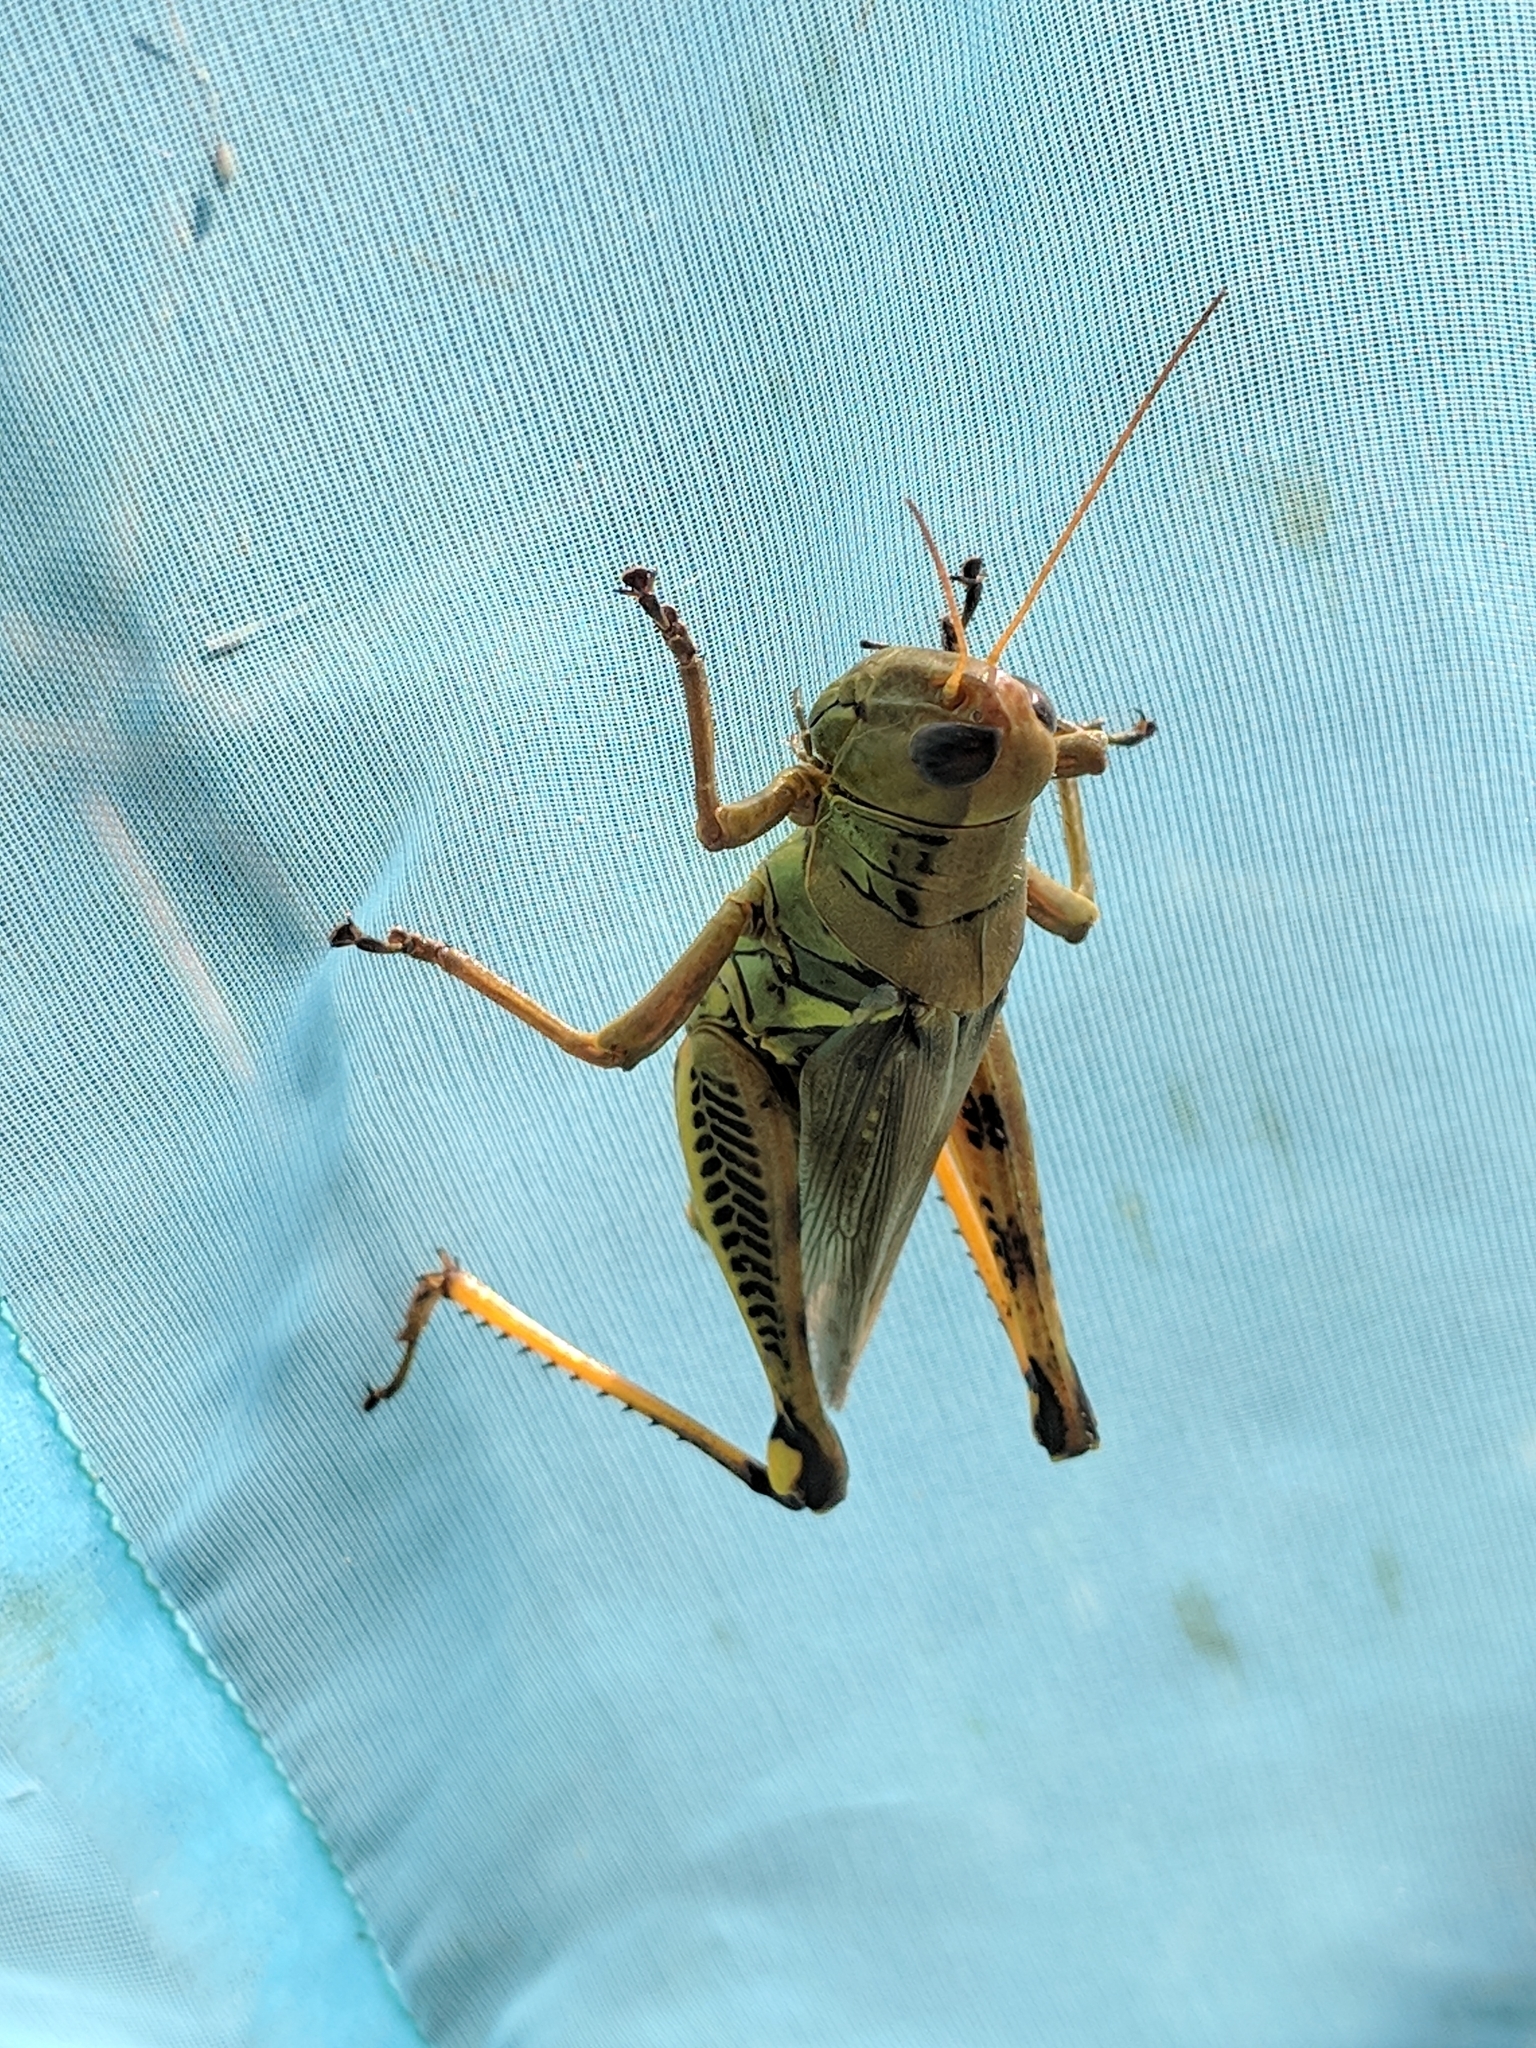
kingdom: Animalia
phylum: Arthropoda
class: Insecta
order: Orthoptera
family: Acrididae
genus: Melanoplus
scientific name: Melanoplus differentialis
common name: Differential grasshopper
